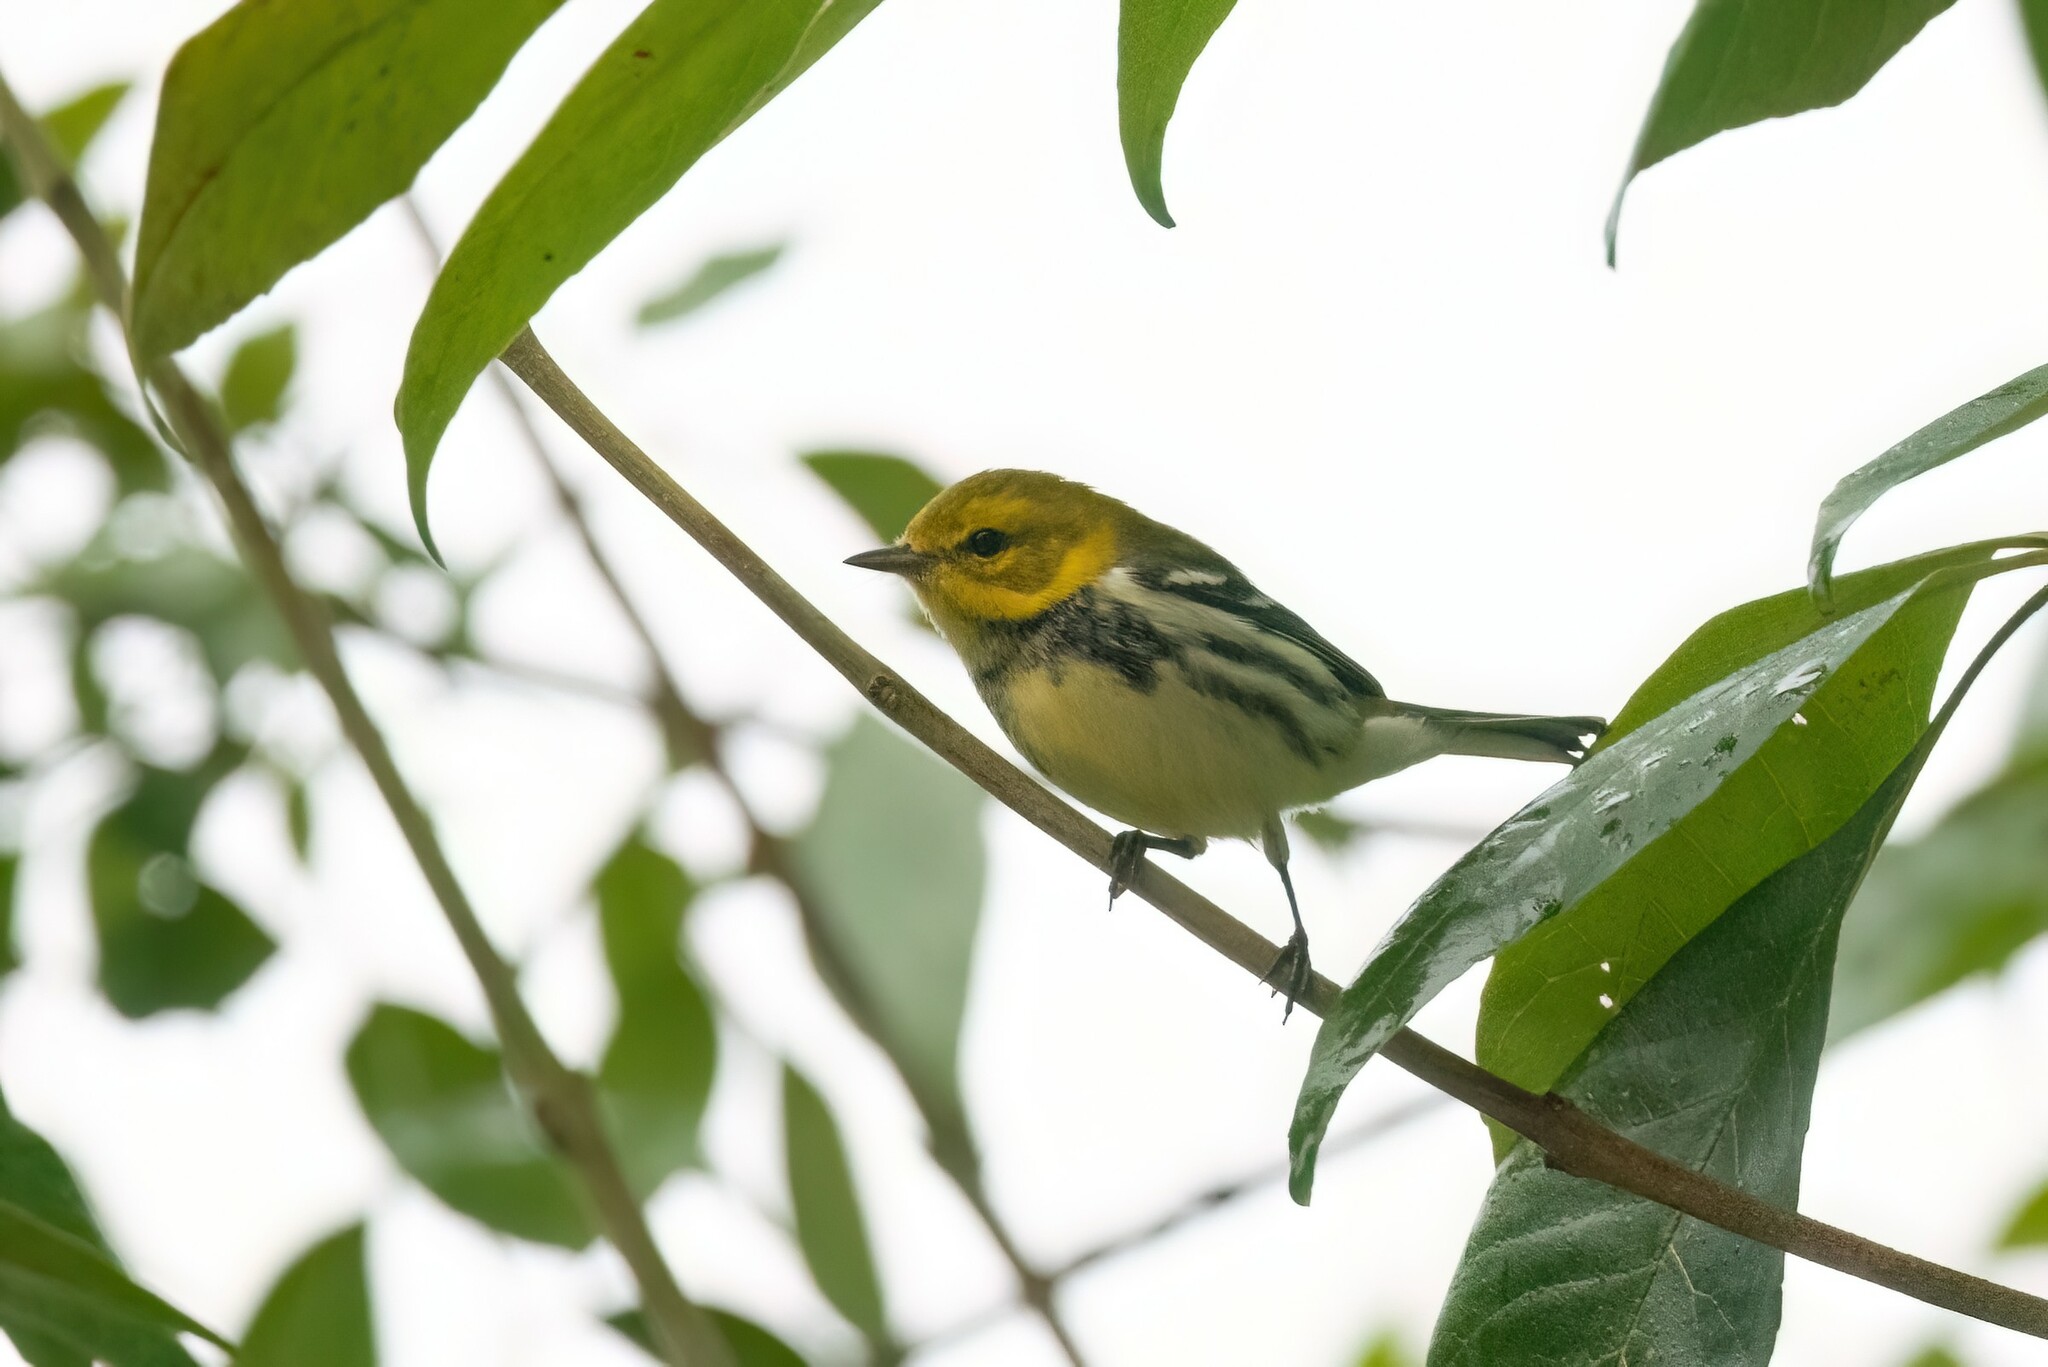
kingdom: Animalia
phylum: Chordata
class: Aves
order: Passeriformes
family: Parulidae
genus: Setophaga
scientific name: Setophaga virens
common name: Black-throated green warbler
